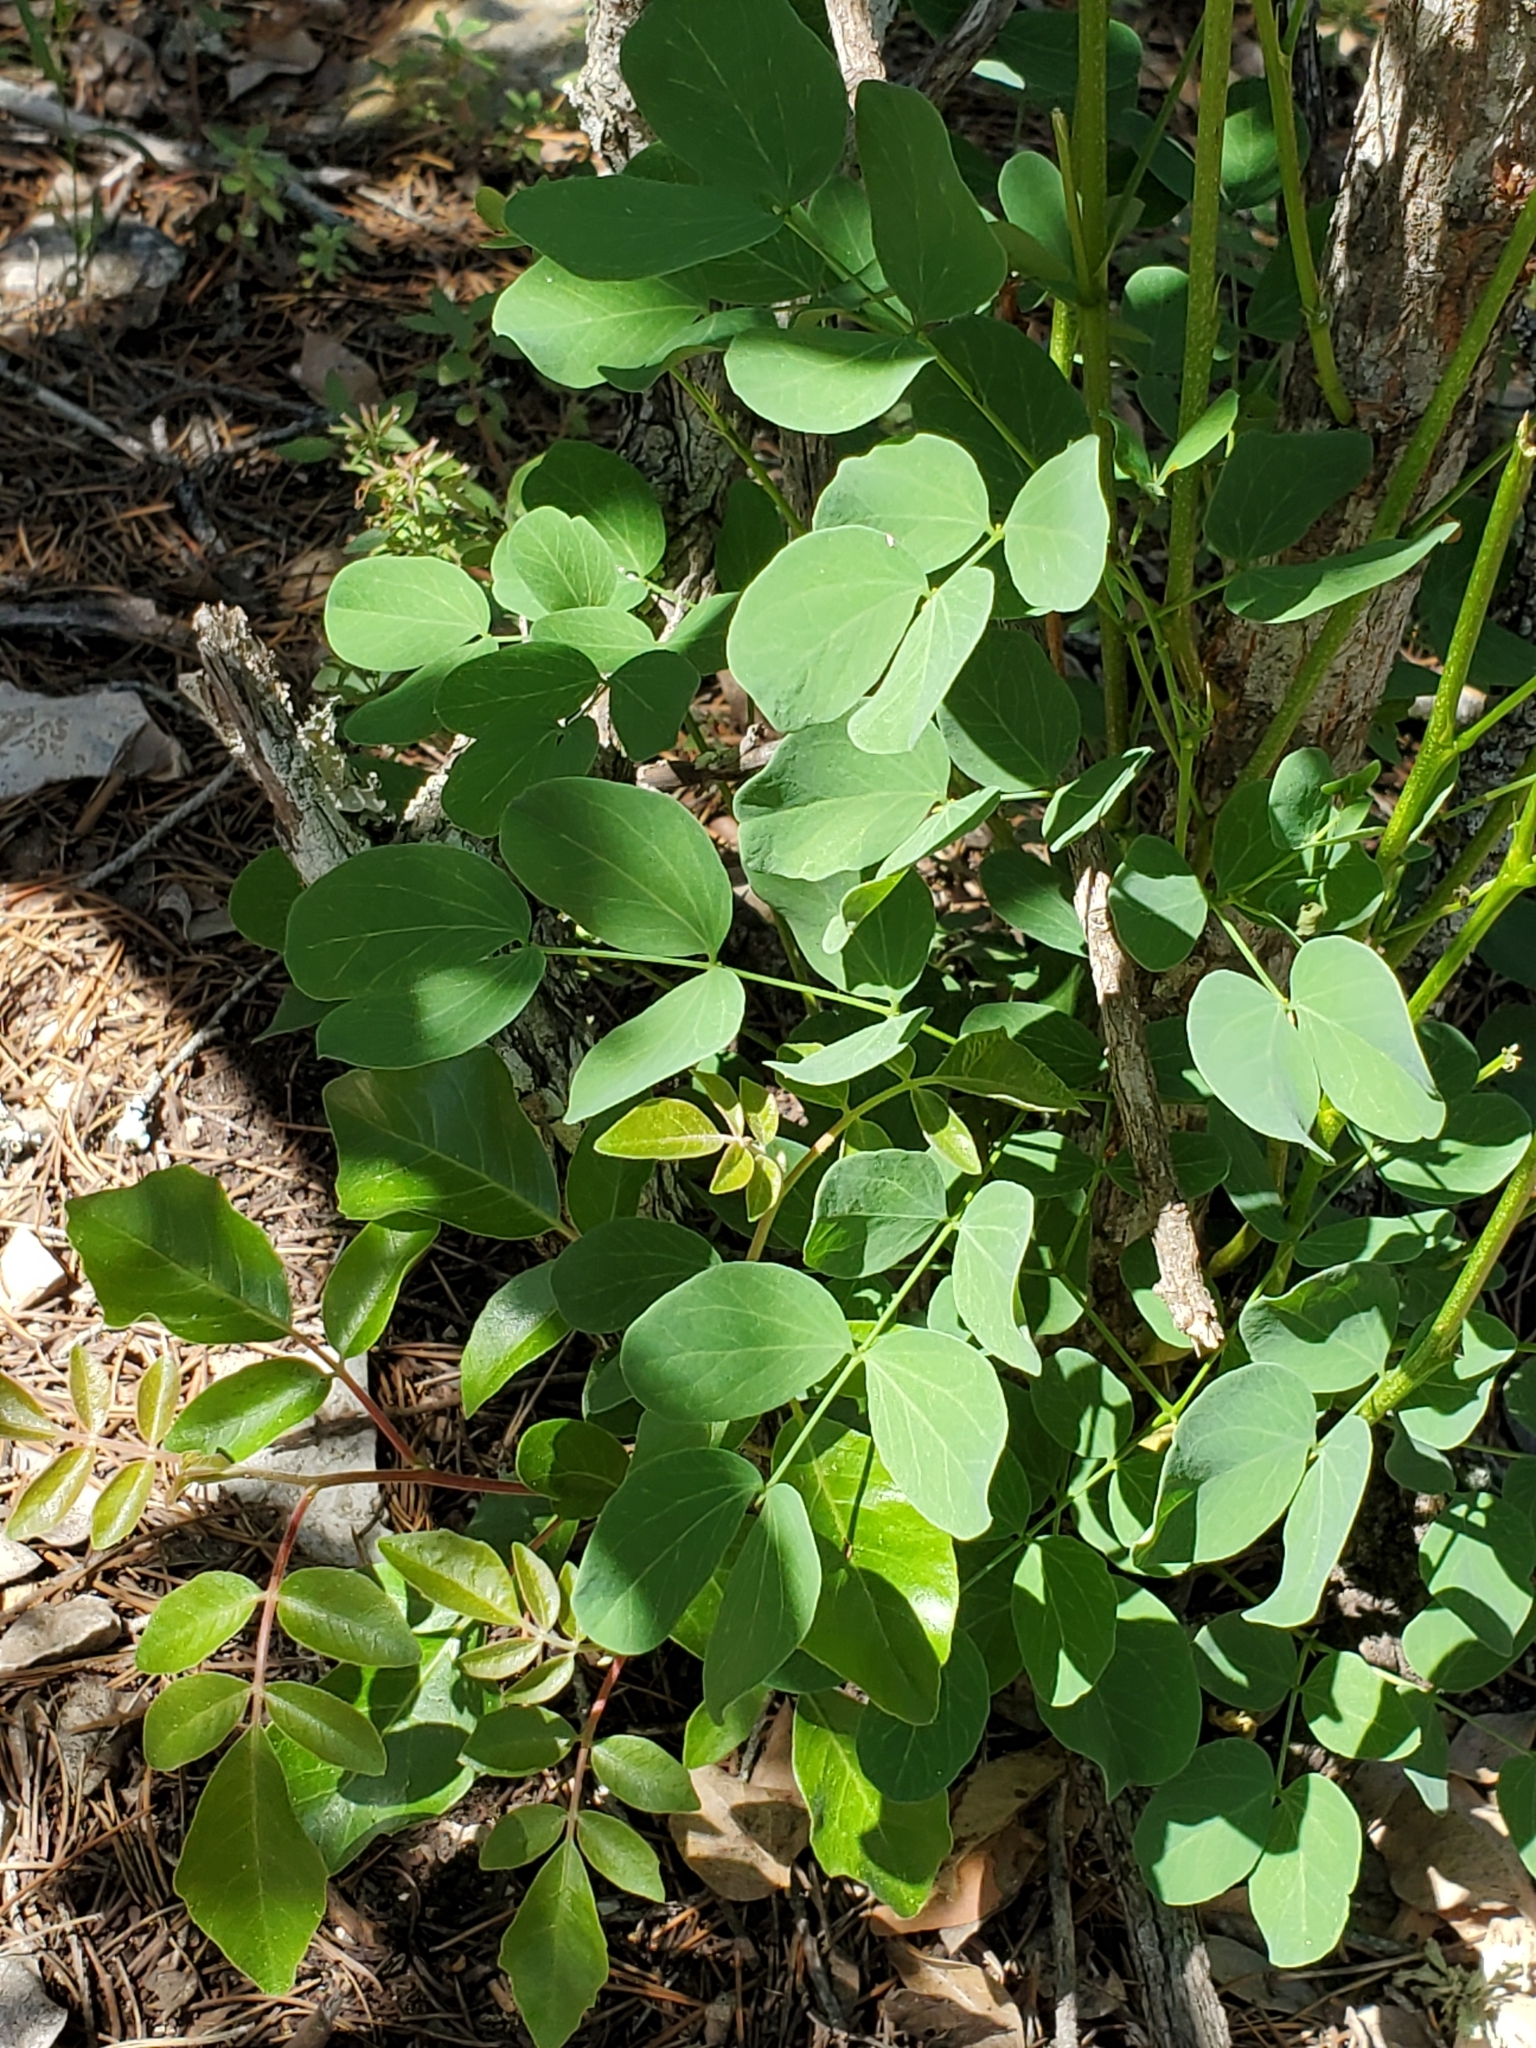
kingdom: Plantae
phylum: Tracheophyta
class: Magnoliopsida
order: Fabales
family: Fabaceae
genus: Leucaena
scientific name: Leucaena retusa
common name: Littleleaf leadtree
